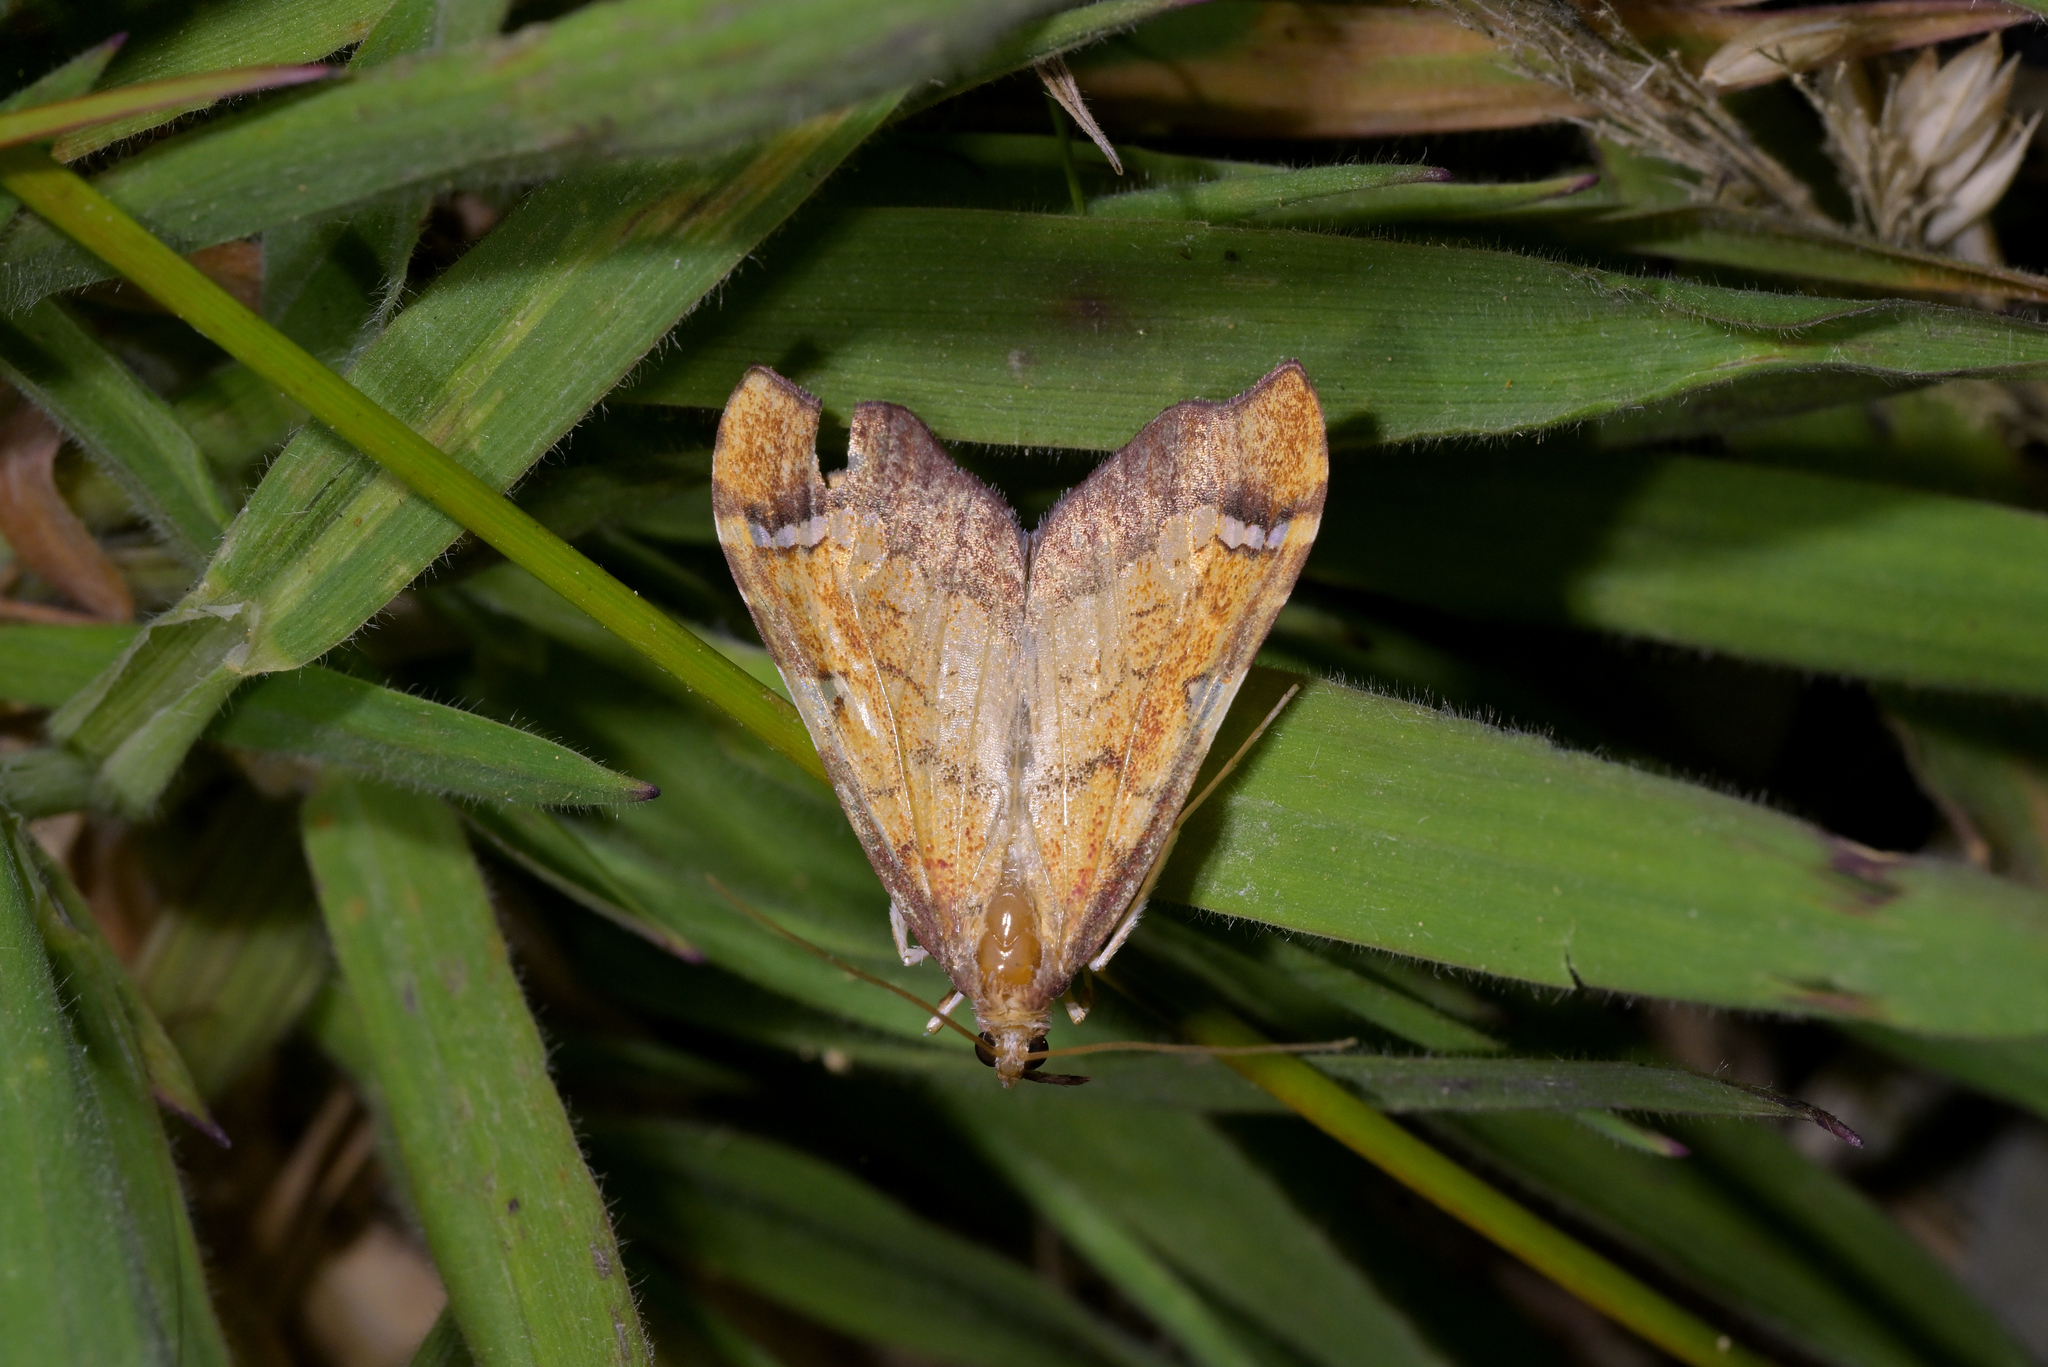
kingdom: Animalia
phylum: Arthropoda
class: Insecta
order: Lepidoptera
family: Crambidae
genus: Deana
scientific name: Deana hybreasalis
